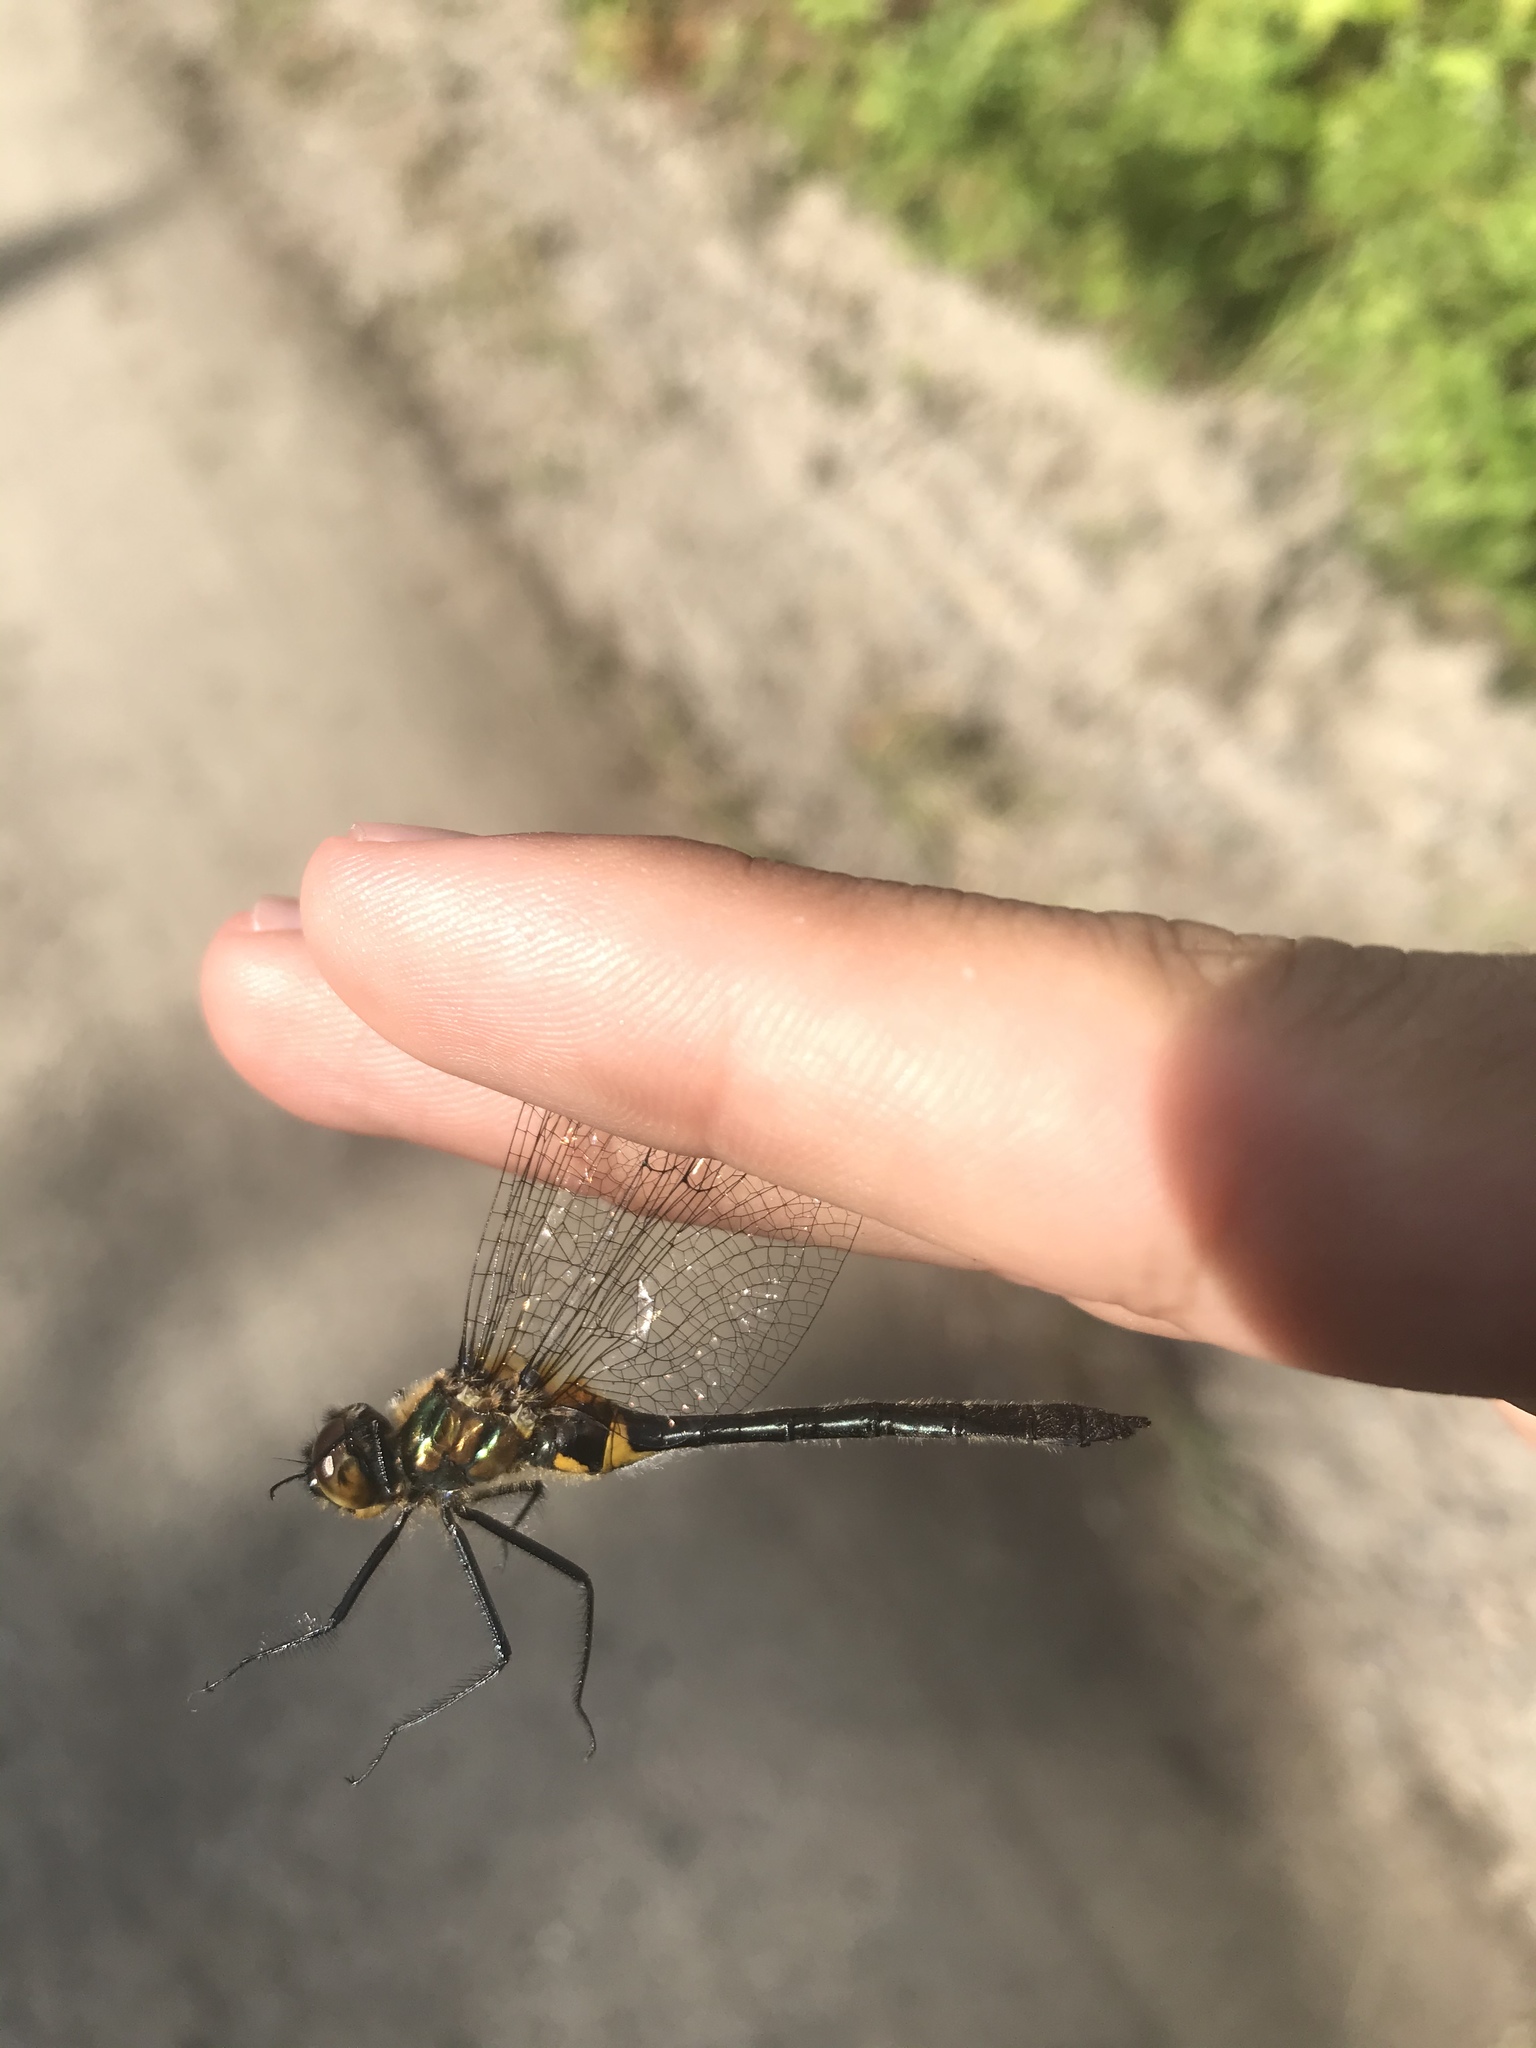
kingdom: Animalia
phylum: Arthropoda
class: Insecta
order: Odonata
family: Corduliidae
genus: Dorocordulia
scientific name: Dorocordulia libera
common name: Racket-tailed emerald
